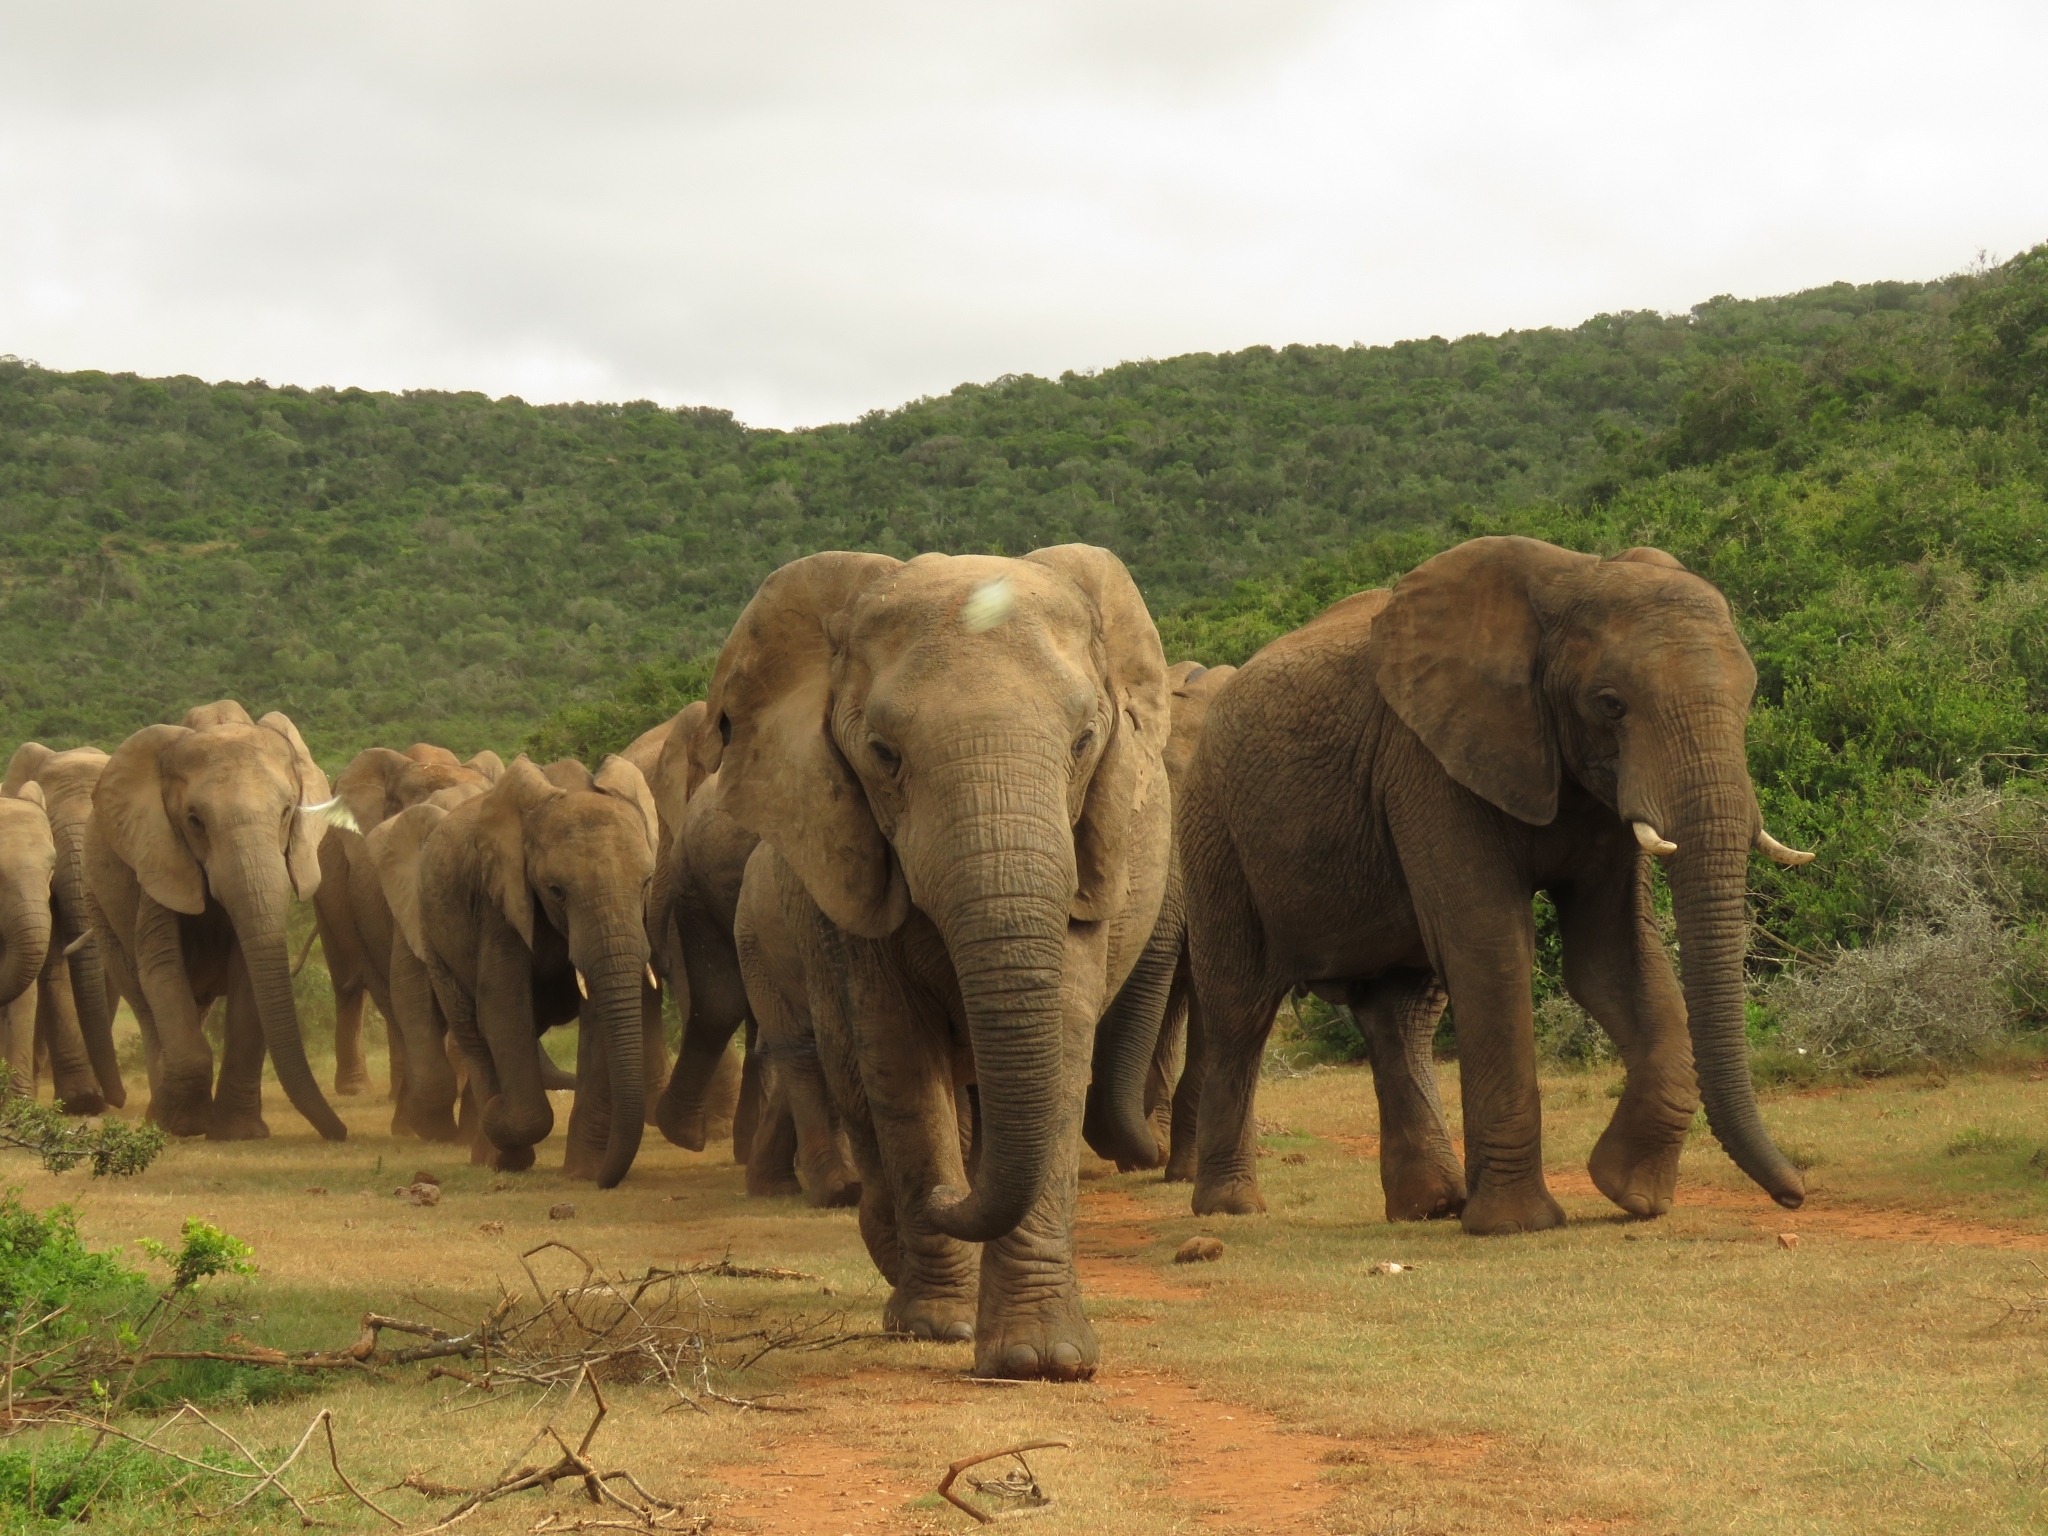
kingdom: Animalia
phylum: Chordata
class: Mammalia
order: Proboscidea
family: Elephantidae
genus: Loxodonta
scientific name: Loxodonta africana
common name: African elephant
